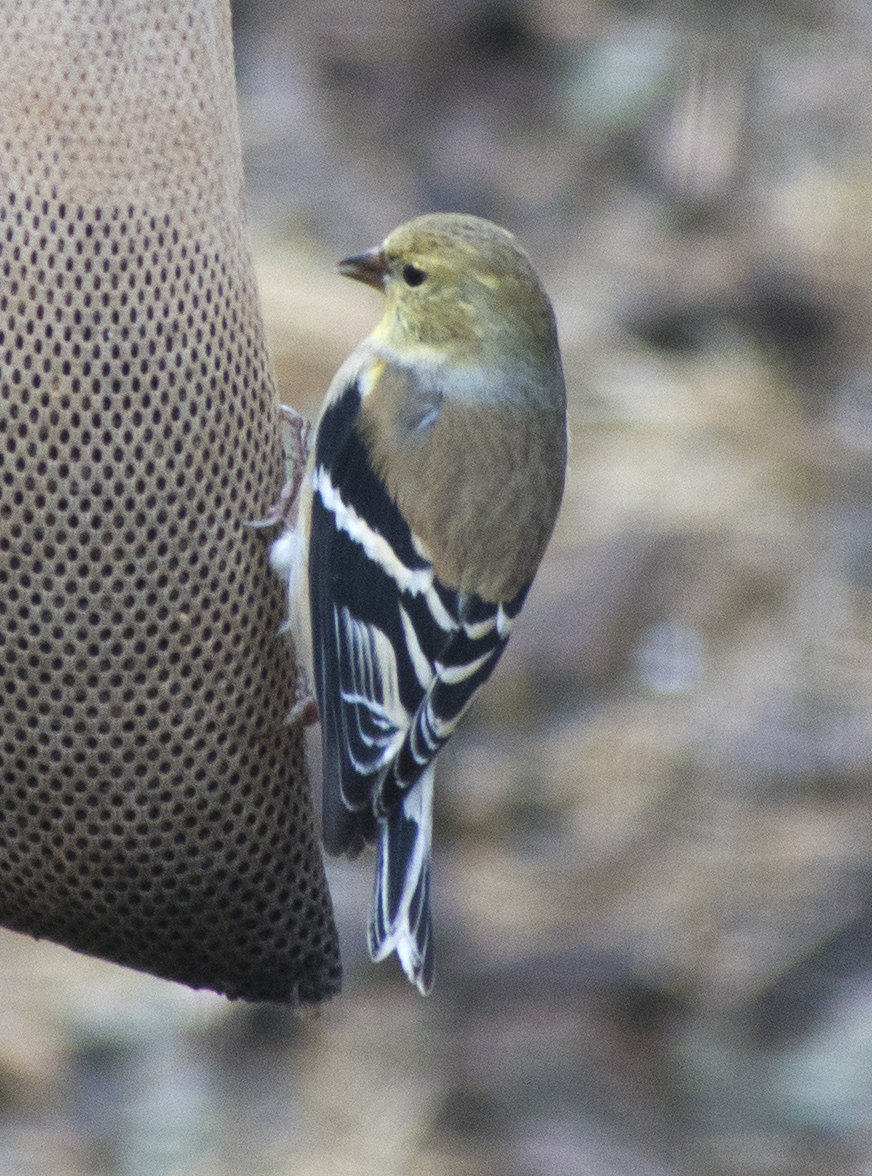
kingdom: Animalia
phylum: Chordata
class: Aves
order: Passeriformes
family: Fringillidae
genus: Spinus
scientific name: Spinus tristis
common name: American goldfinch
